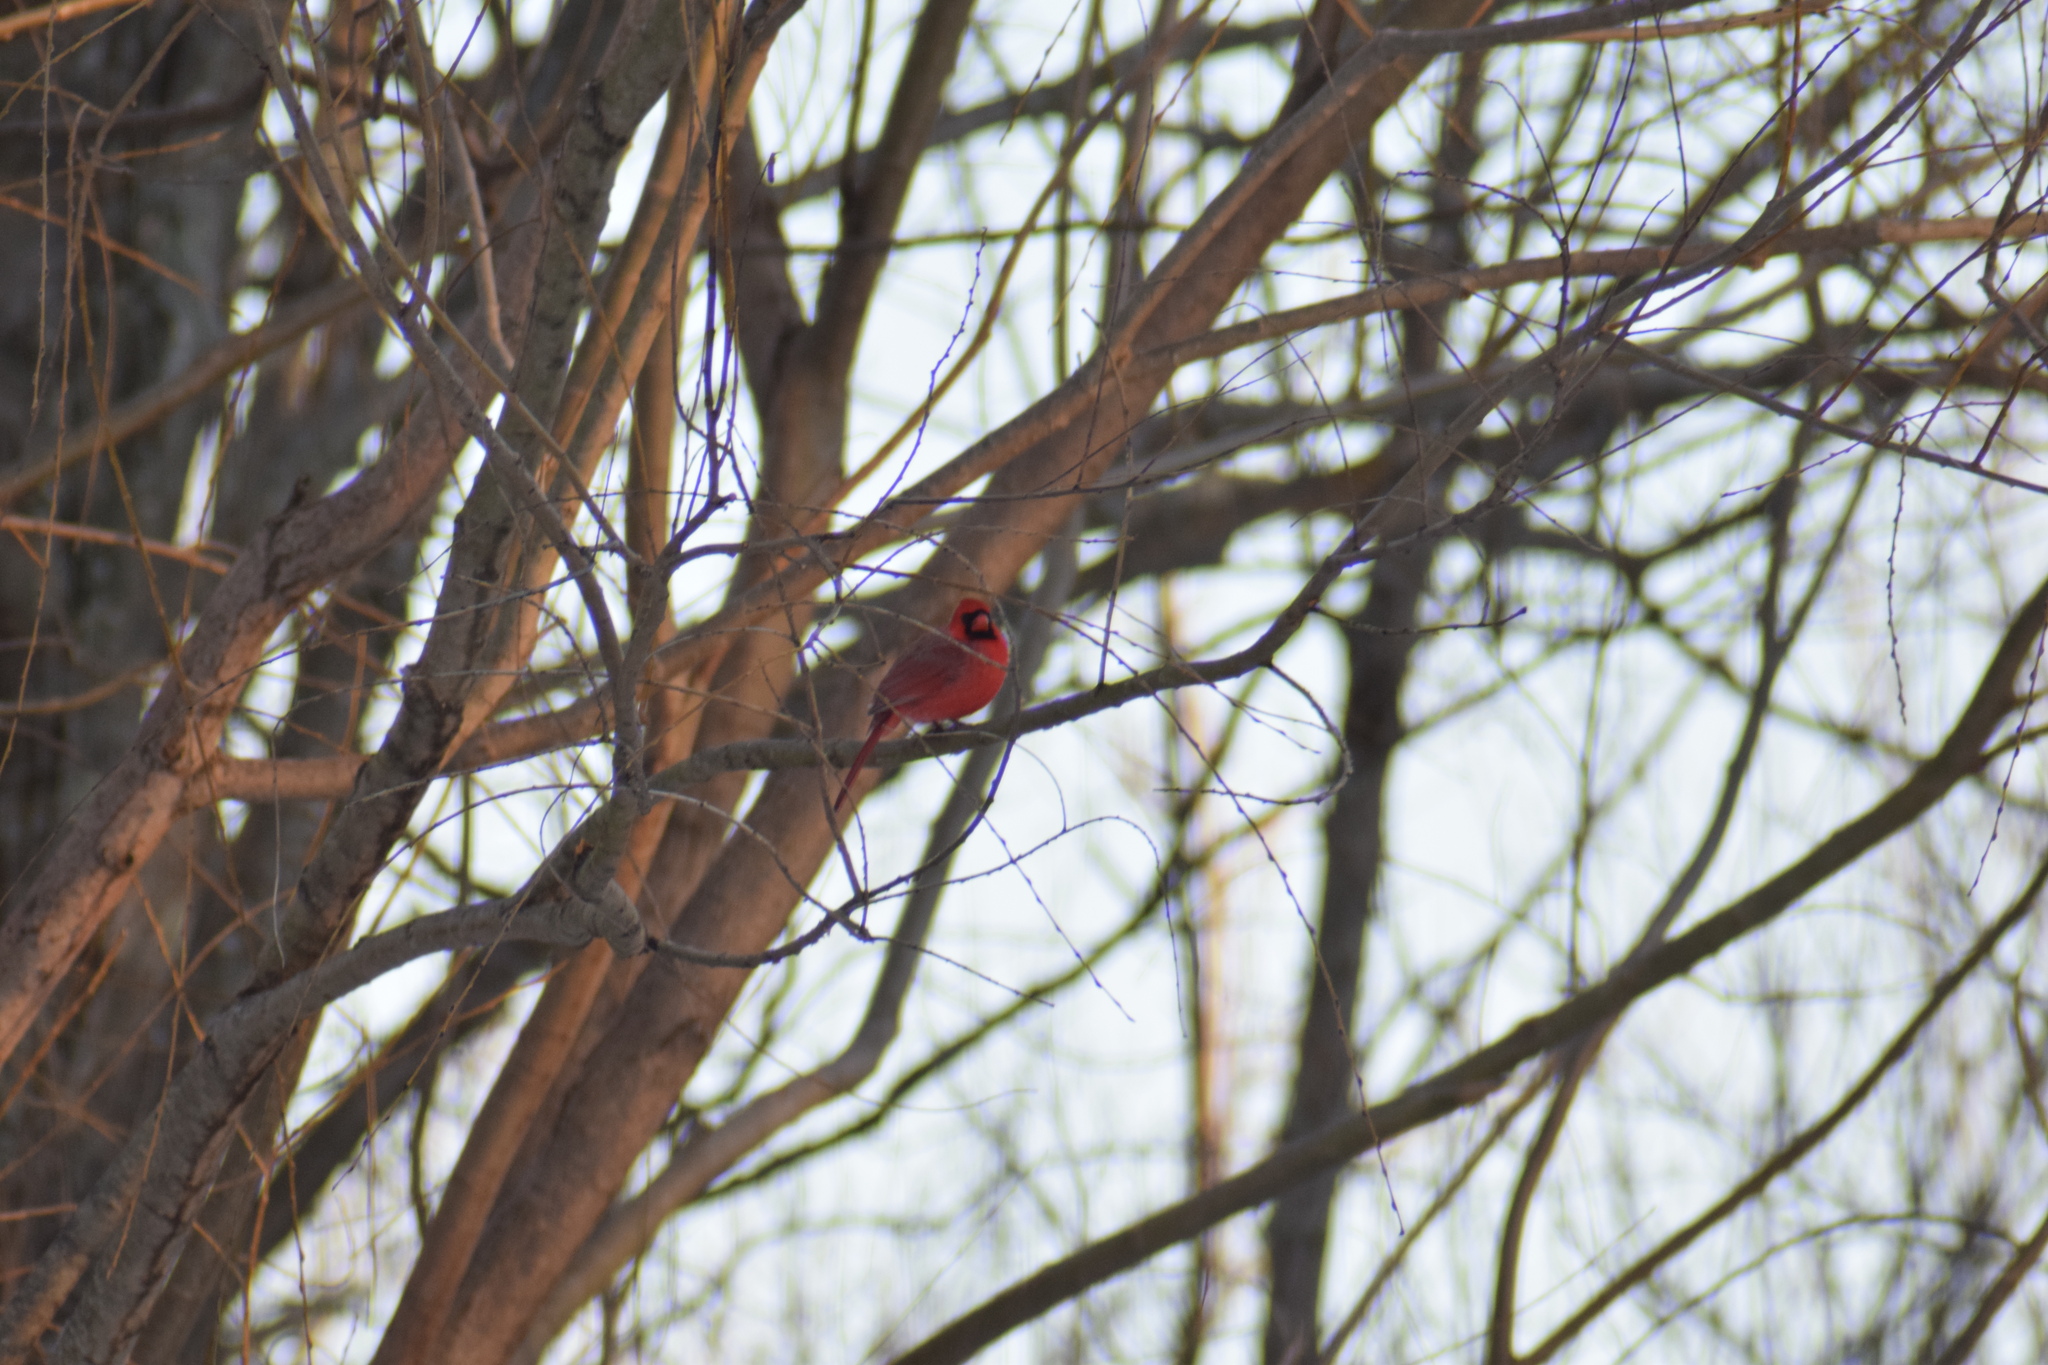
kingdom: Animalia
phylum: Chordata
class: Aves
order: Passeriformes
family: Cardinalidae
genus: Cardinalis
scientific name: Cardinalis cardinalis
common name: Northern cardinal
